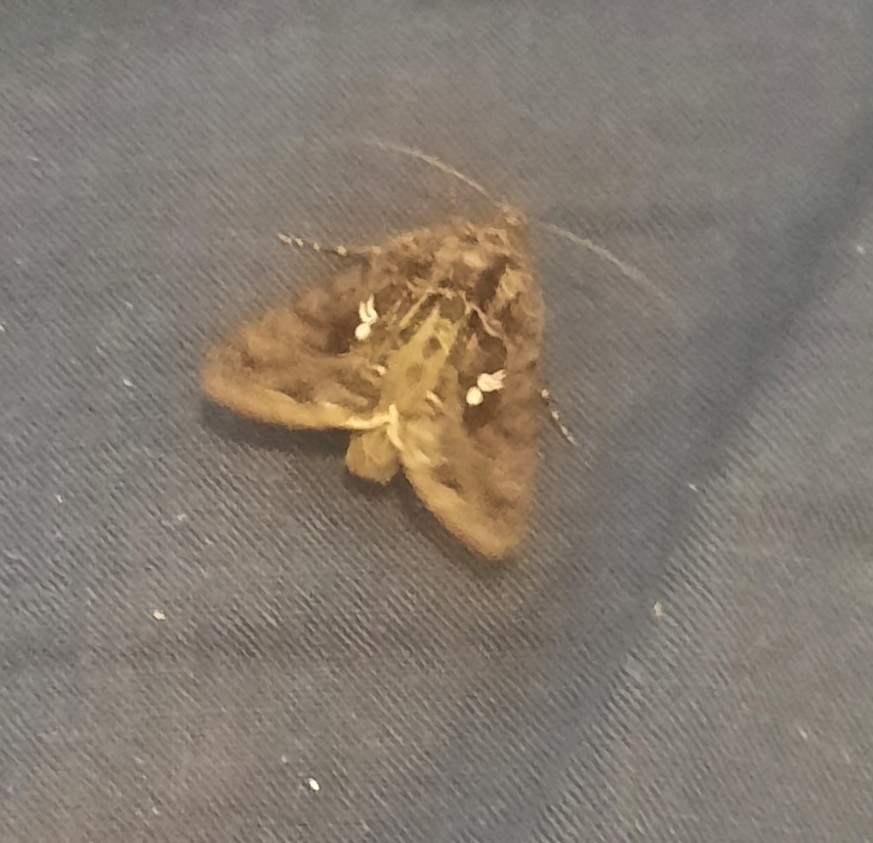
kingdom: Animalia
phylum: Arthropoda
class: Insecta
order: Lepidoptera
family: Noctuidae
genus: Ctenoplusia
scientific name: Ctenoplusia limbirena
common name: Scar bank gem
